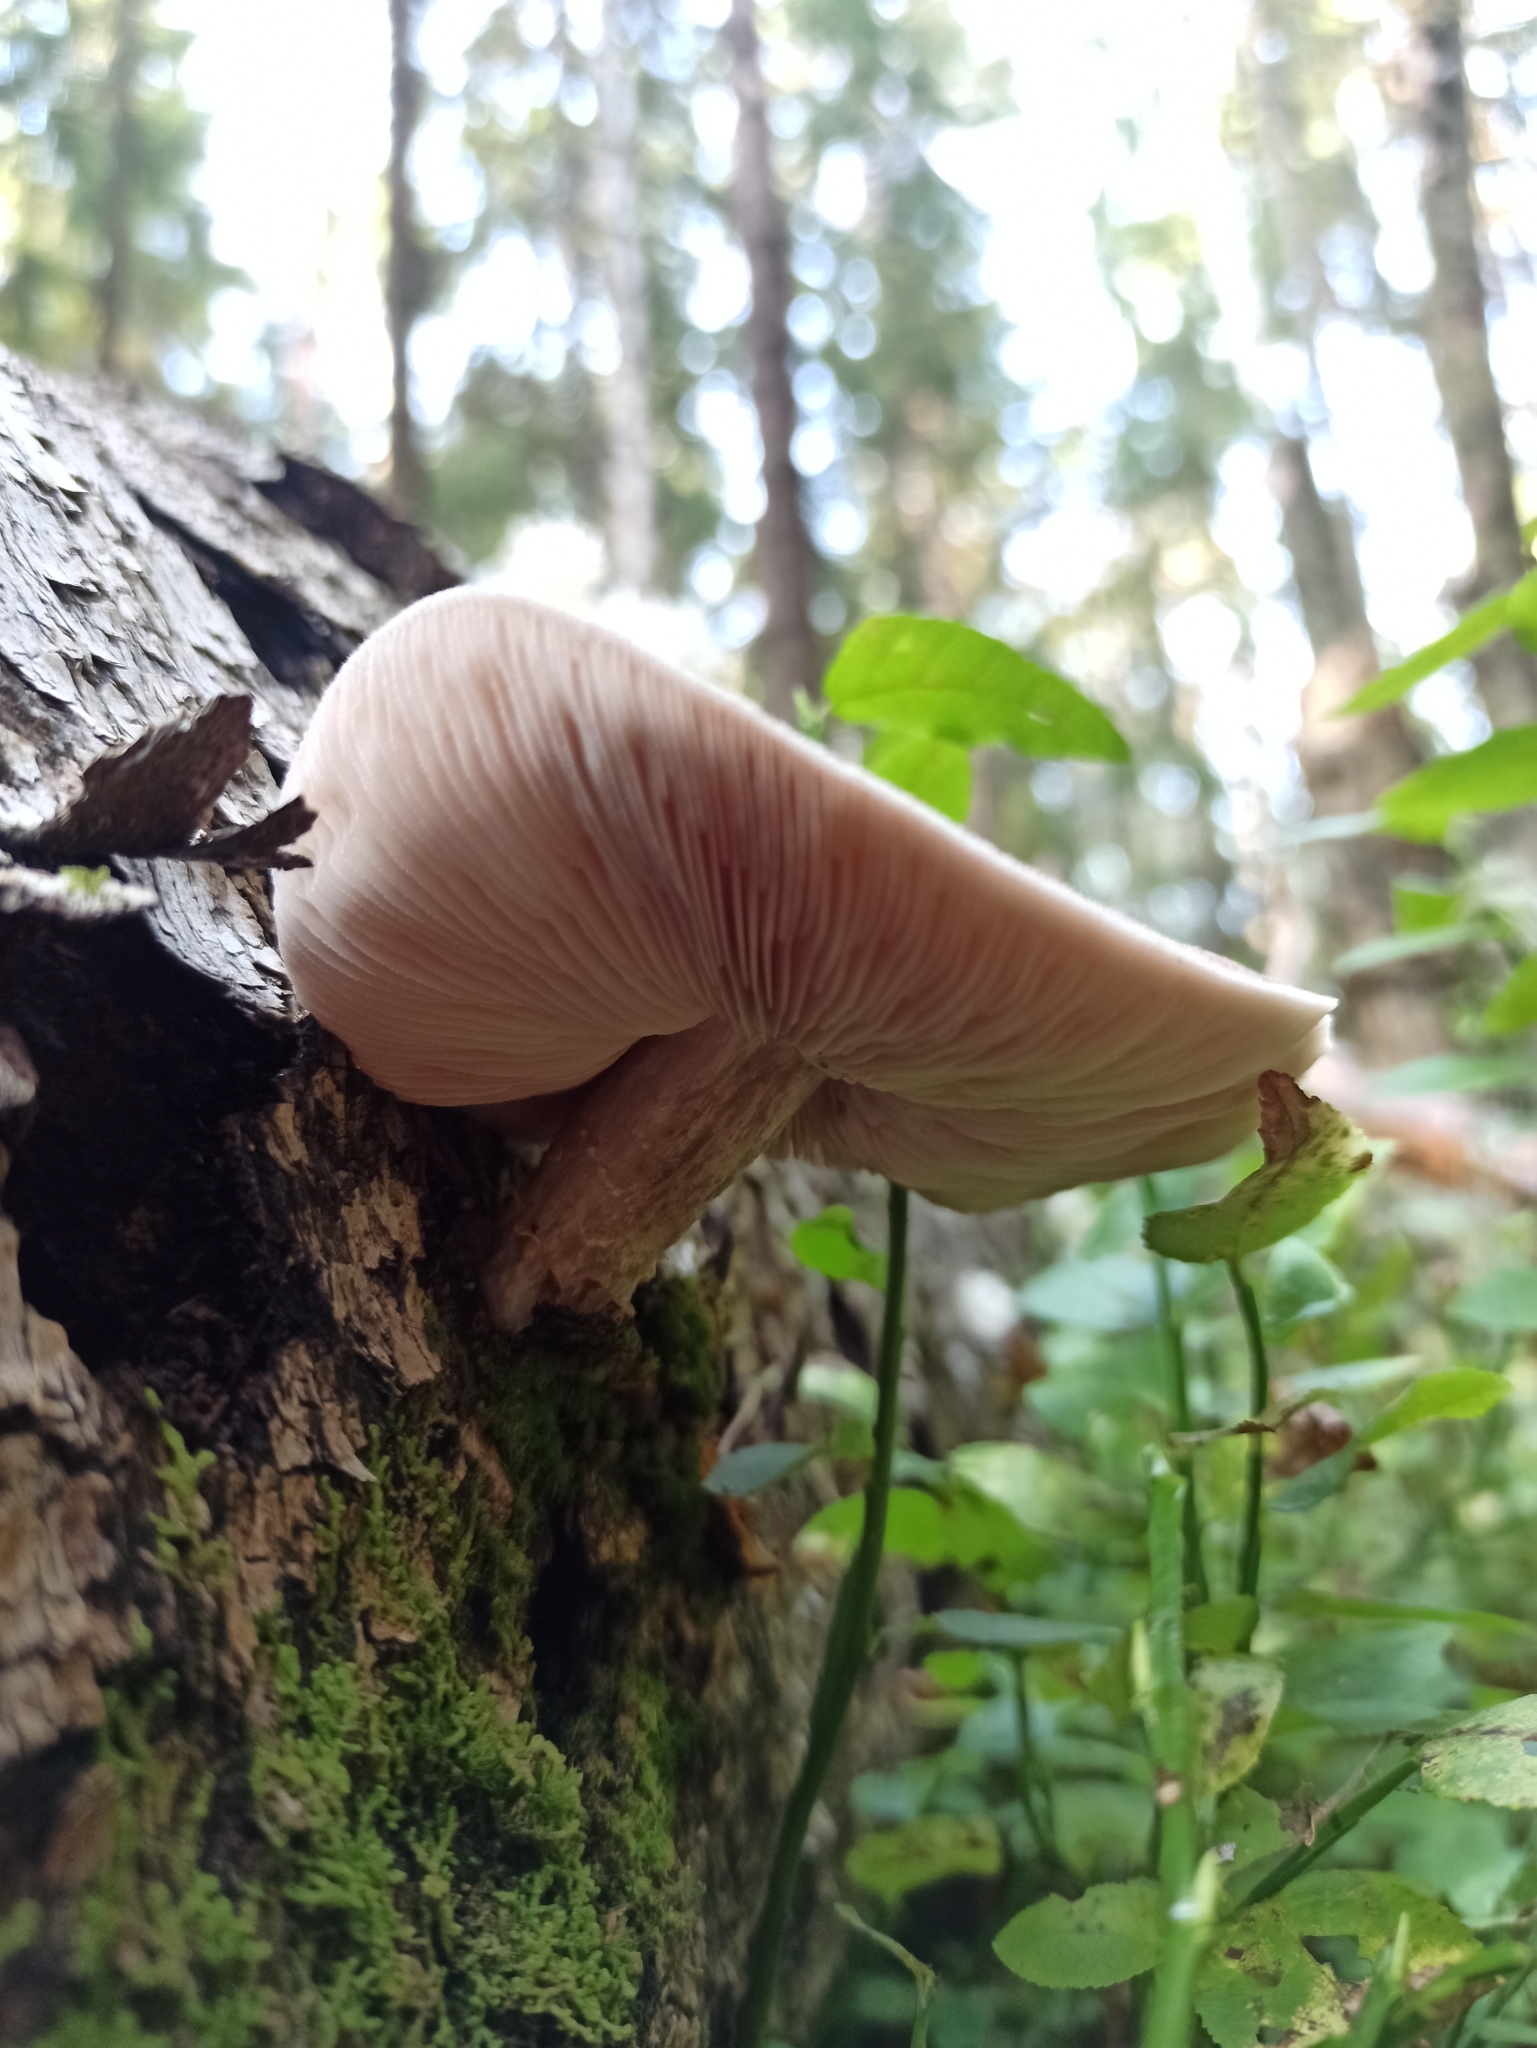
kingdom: Fungi
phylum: Basidiomycota
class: Agaricomycetes
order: Agaricales
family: Pluteaceae
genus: Pluteus
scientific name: Pluteus cervinus
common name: Deer shield
